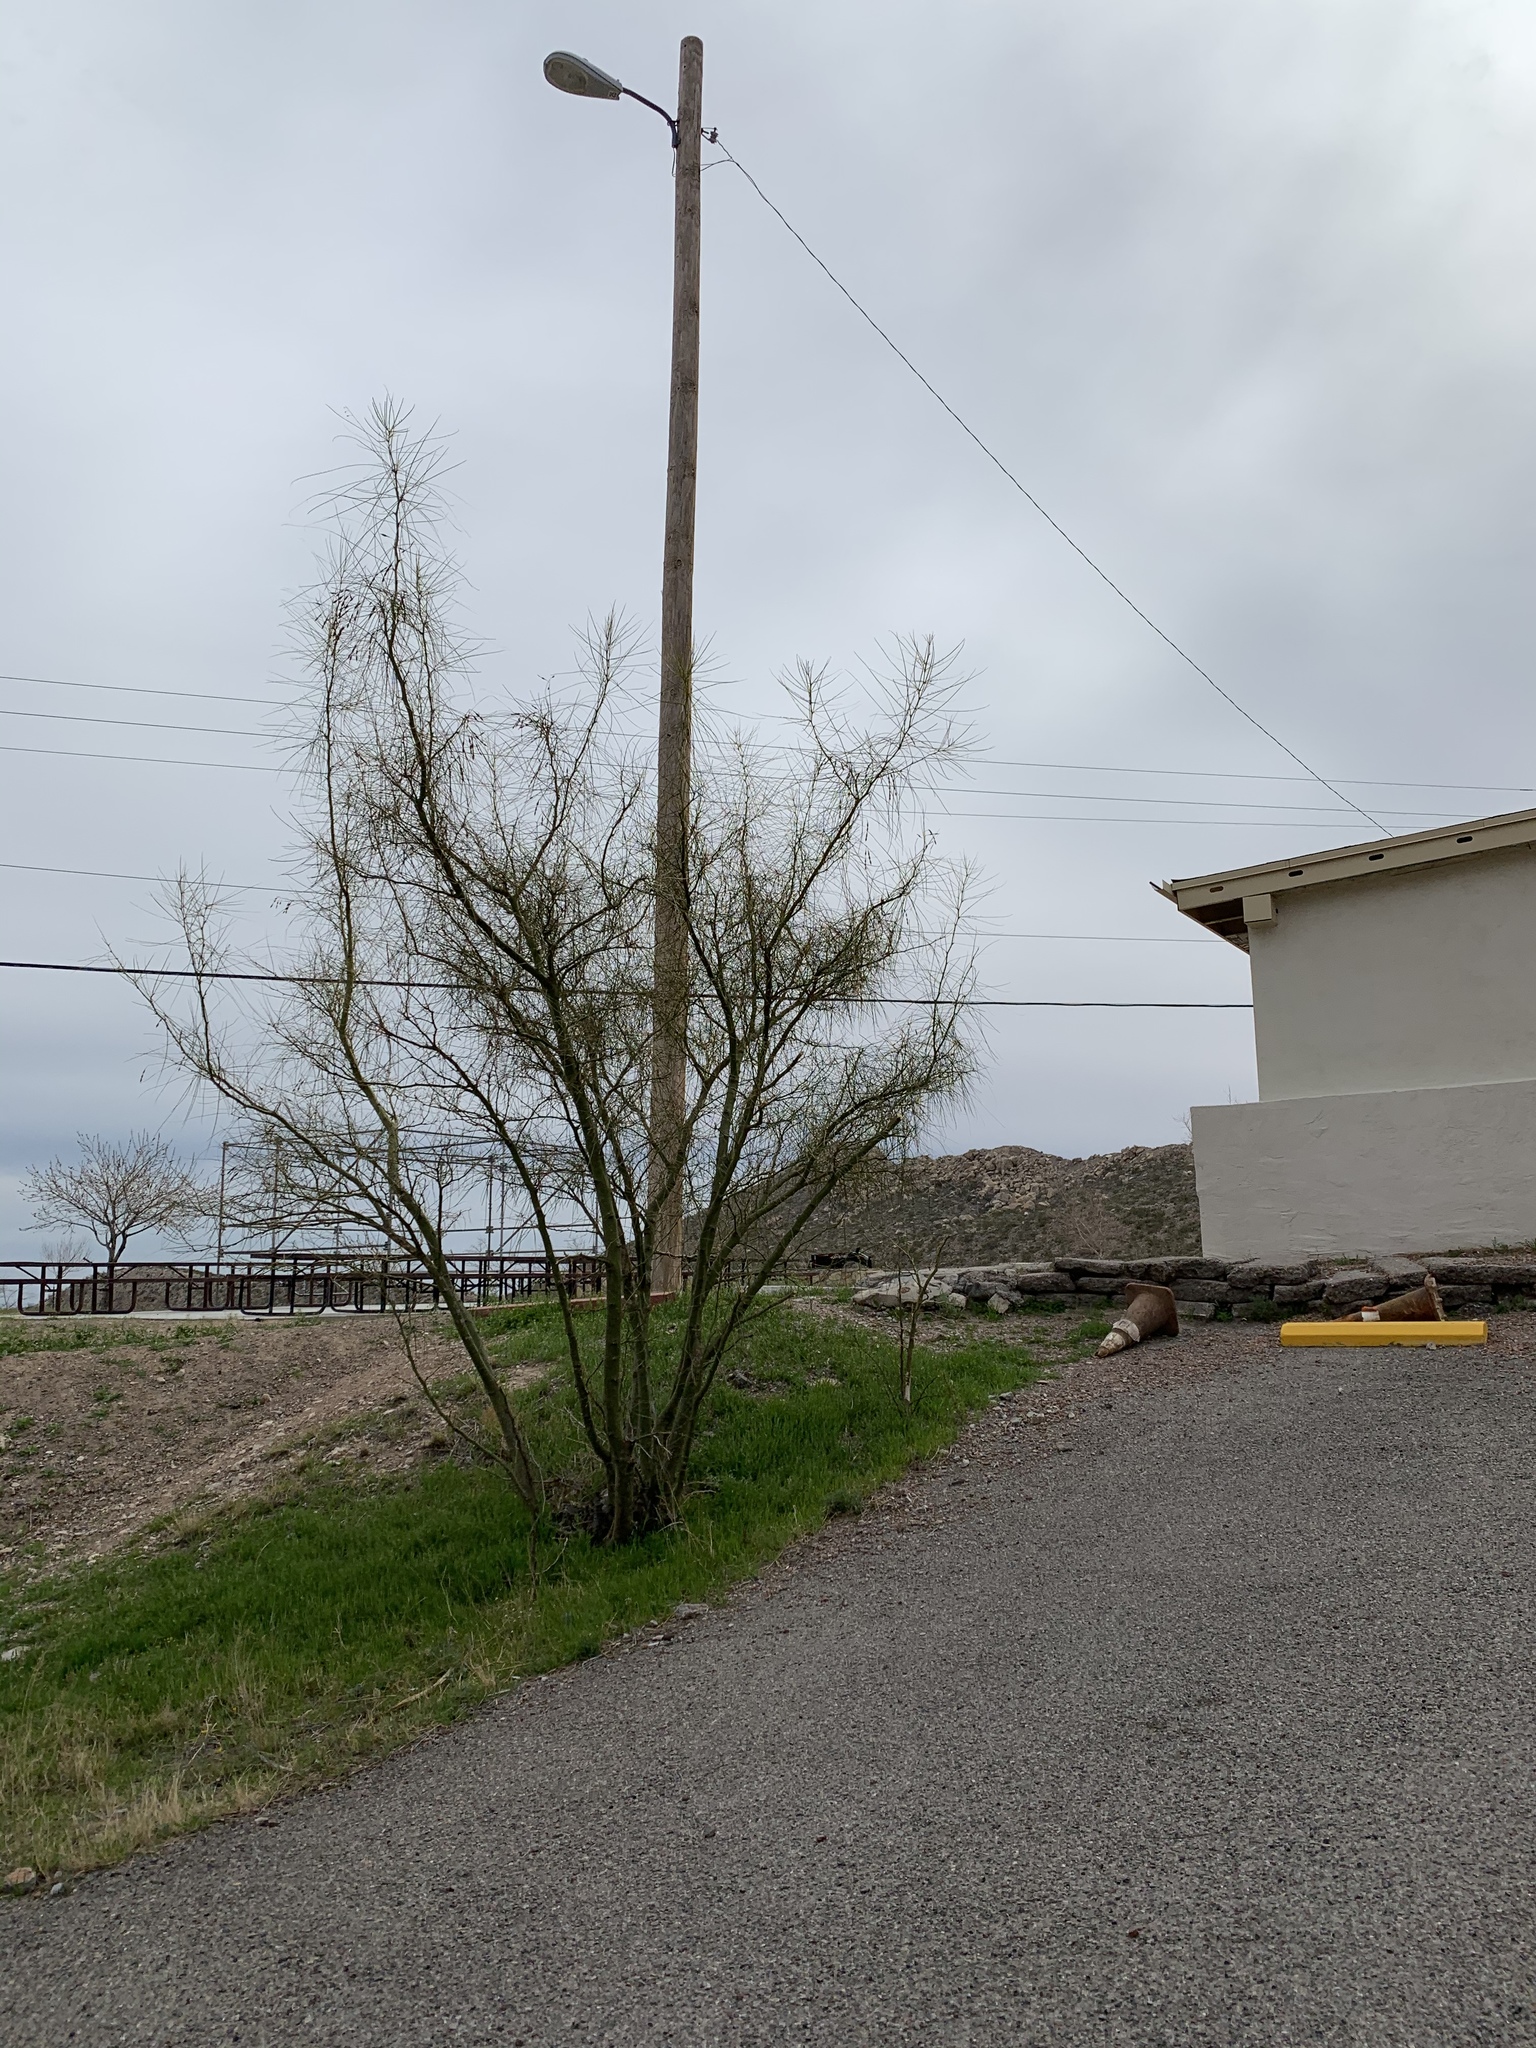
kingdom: Plantae
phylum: Tracheophyta
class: Magnoliopsida
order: Fabales
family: Fabaceae
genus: Parkinsonia
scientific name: Parkinsonia aculeata
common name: Jerusalem thorn
